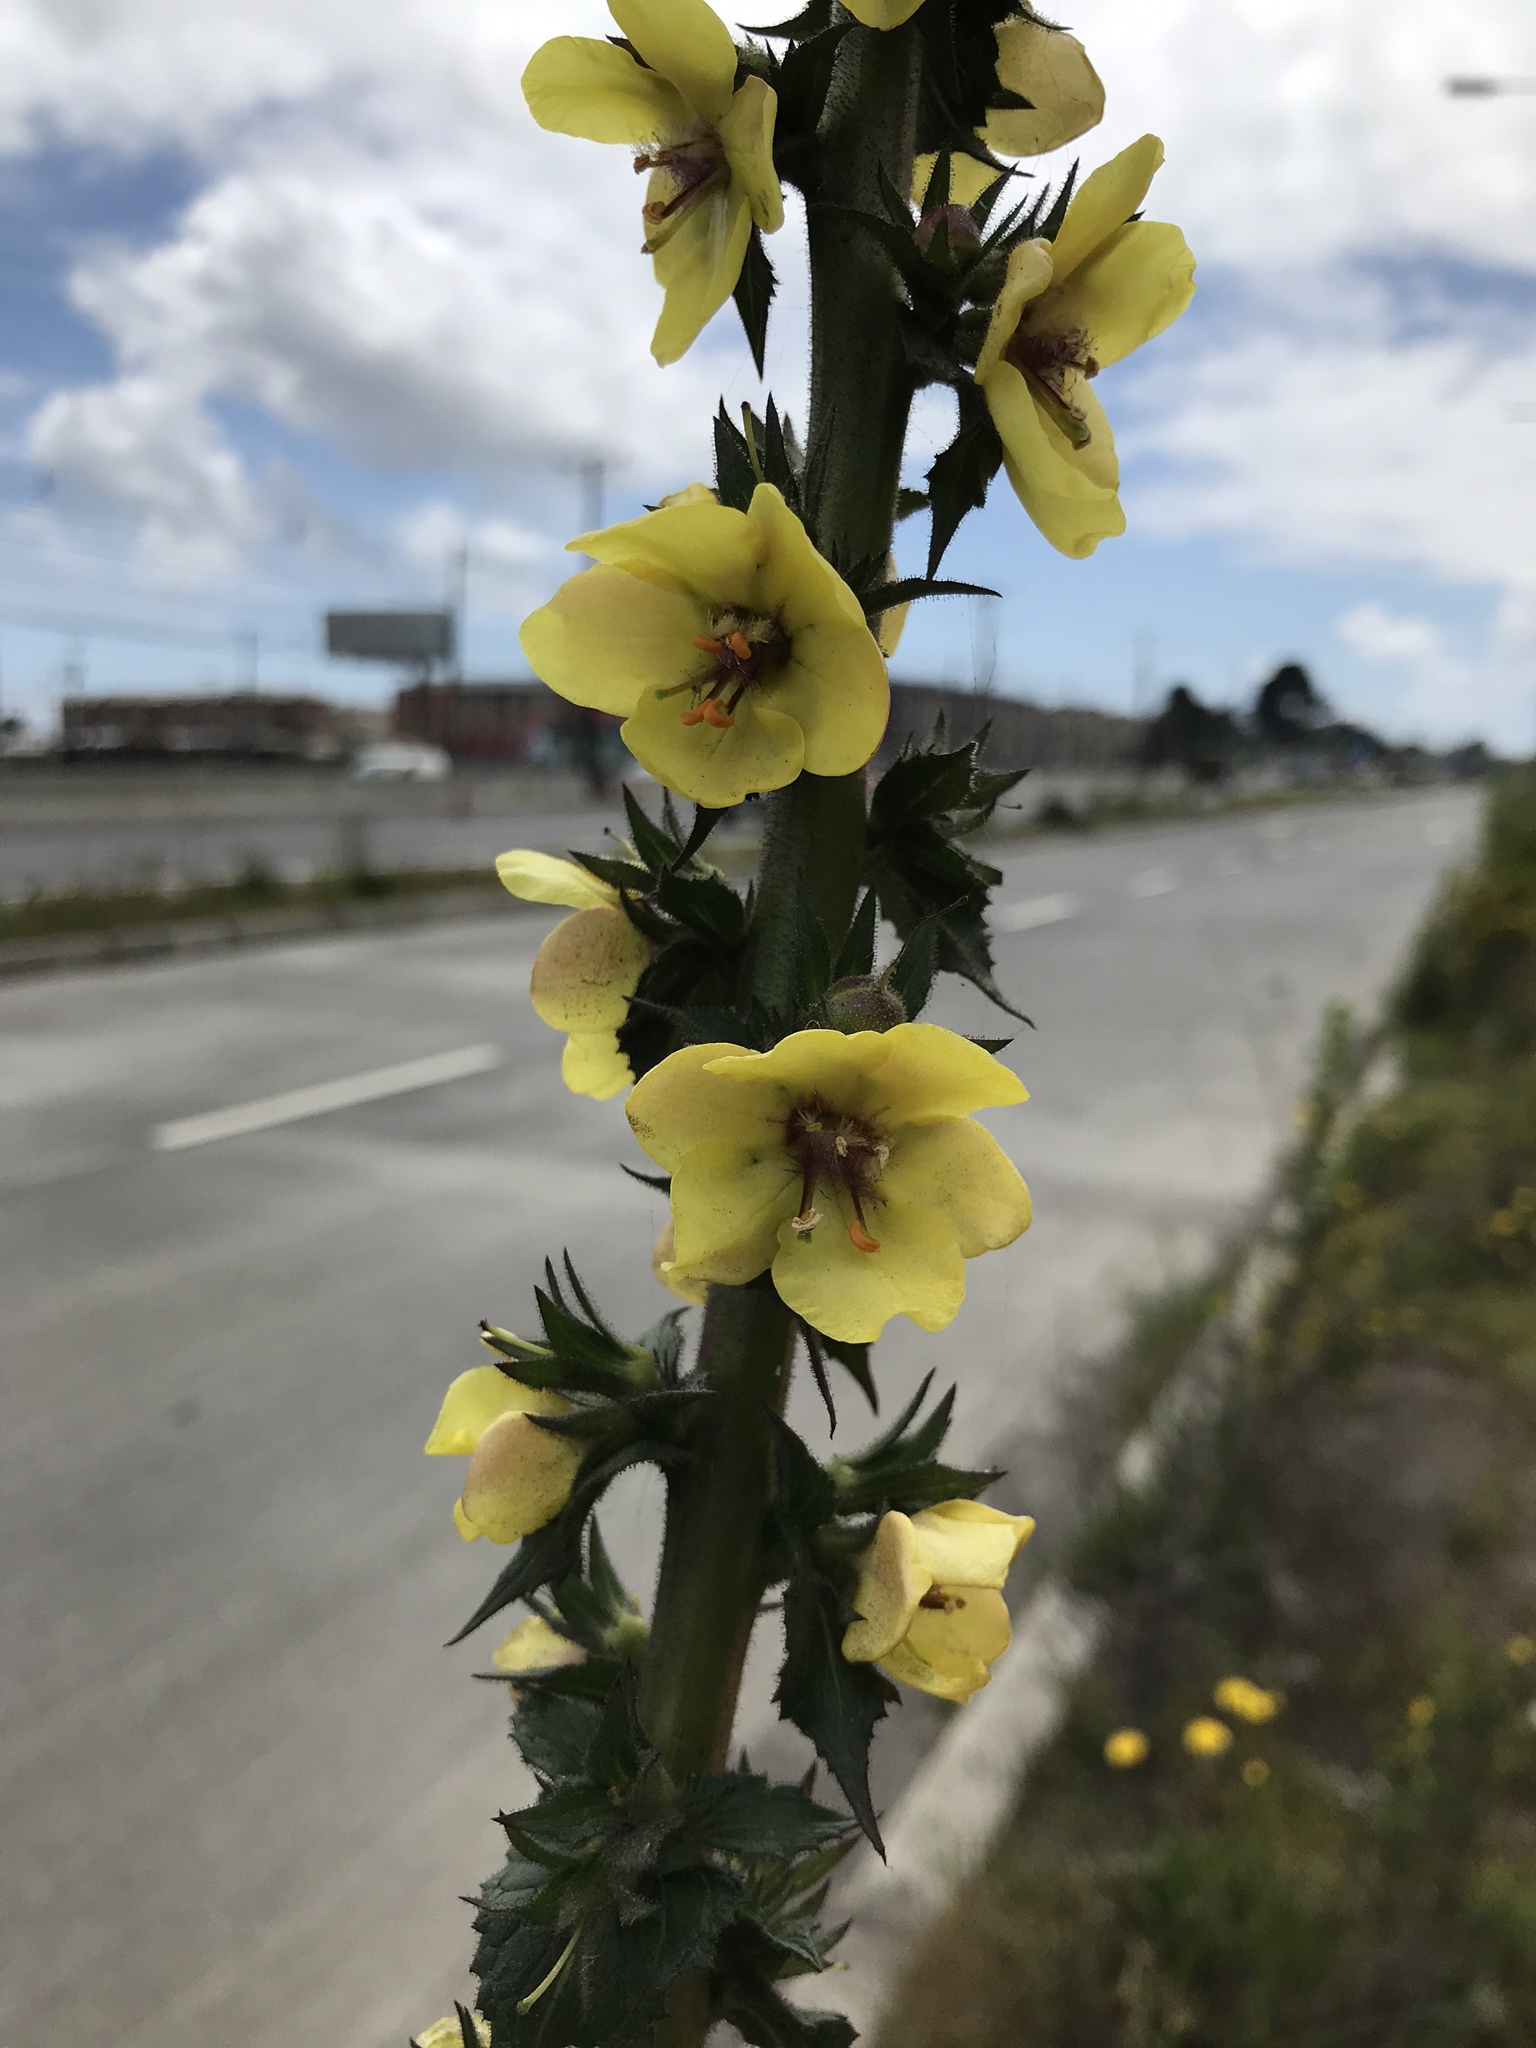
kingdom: Plantae
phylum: Tracheophyta
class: Magnoliopsida
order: Lamiales
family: Scrophulariaceae
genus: Verbascum
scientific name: Verbascum virgatum
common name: Twiggy mullein
